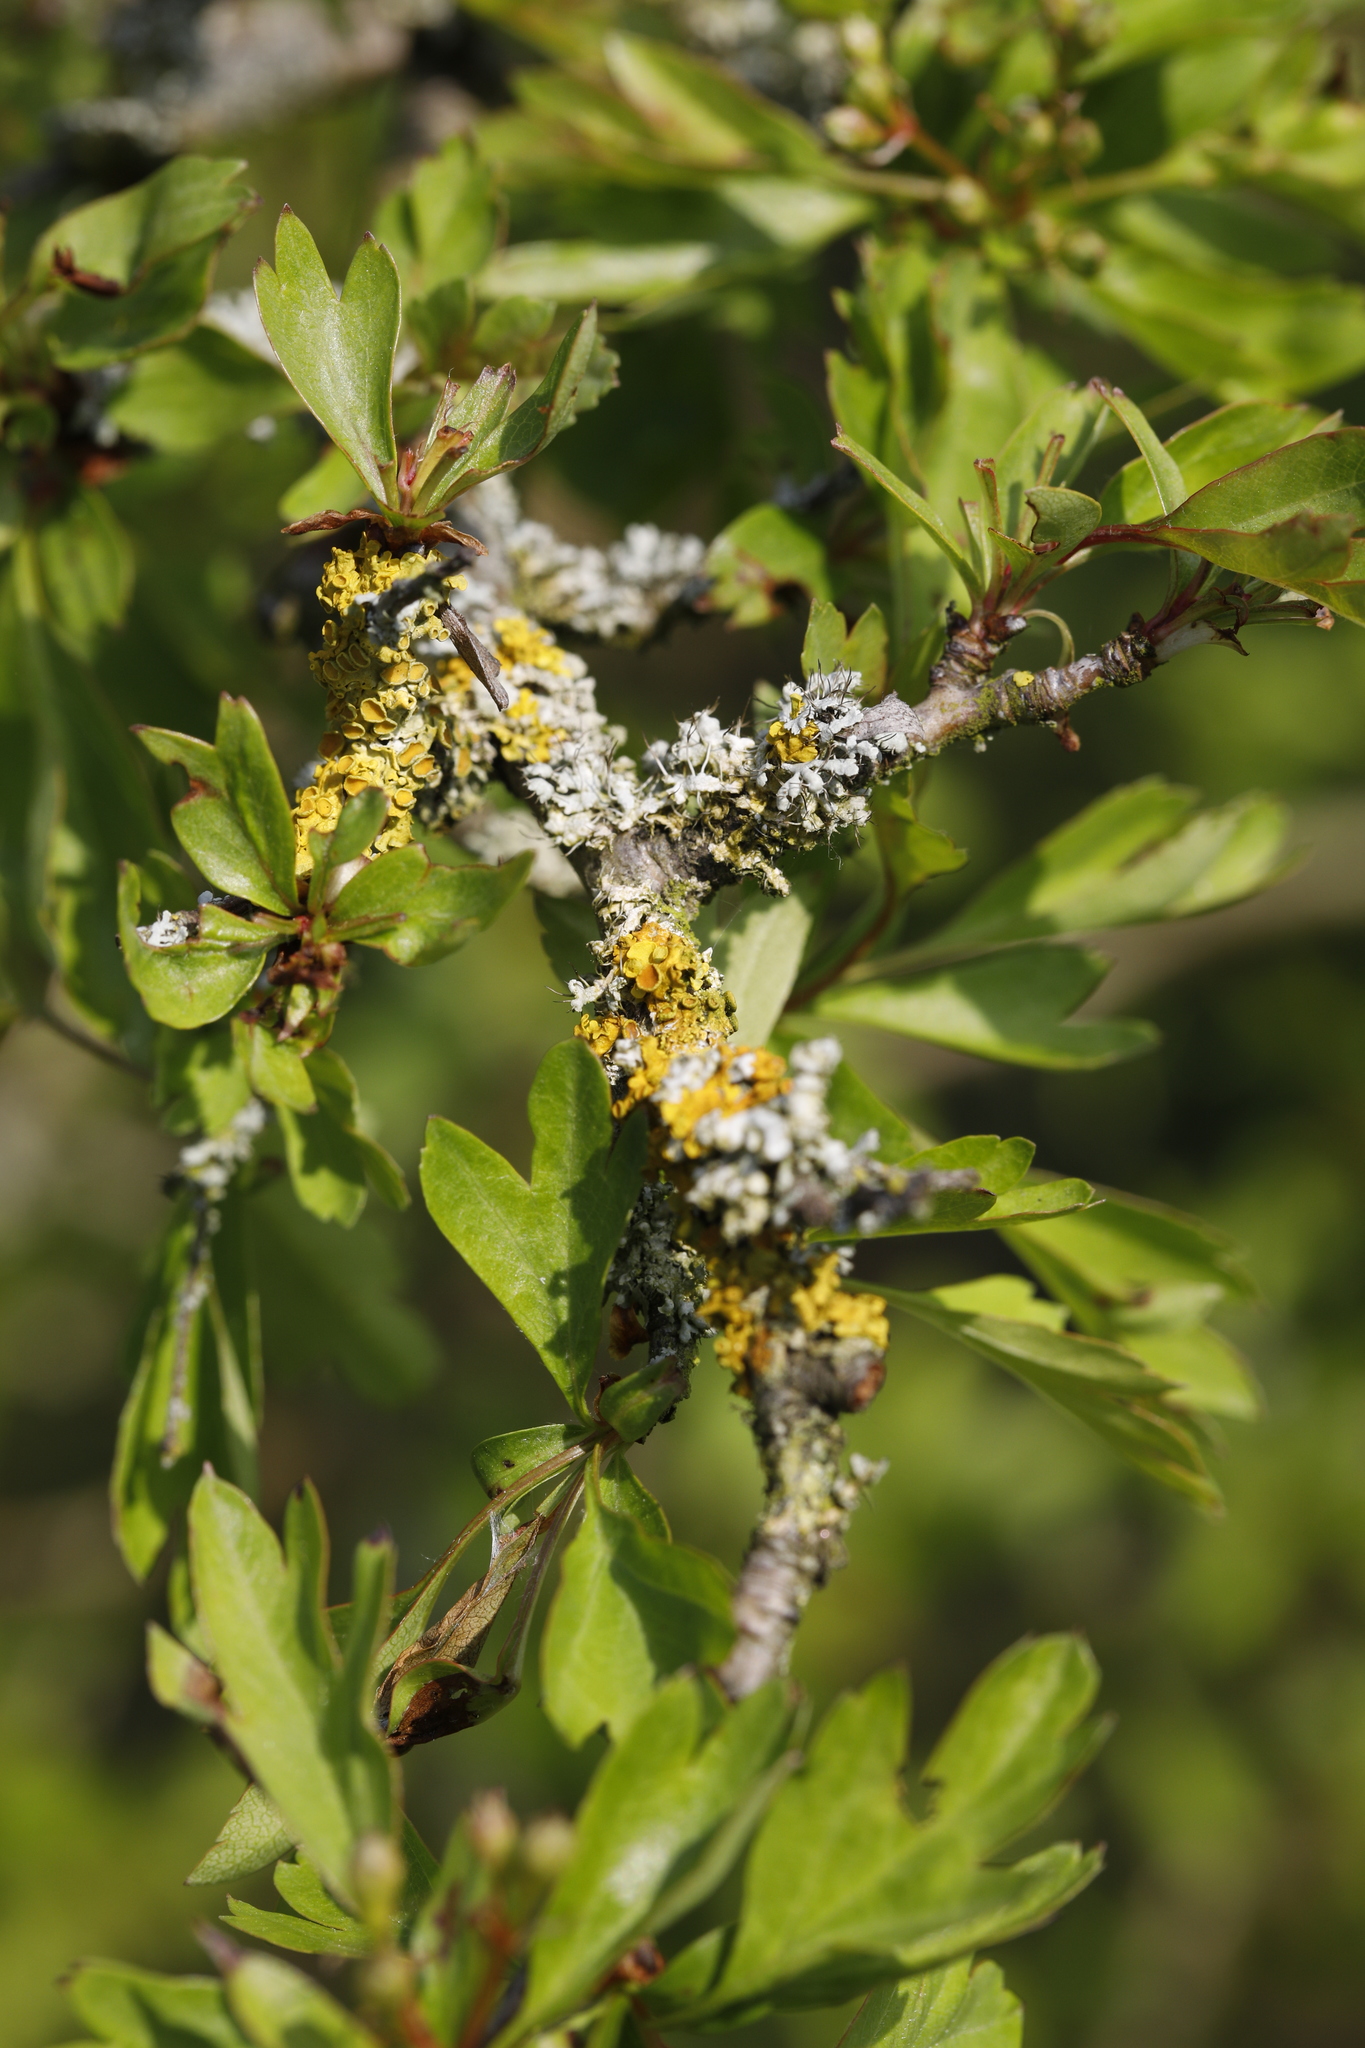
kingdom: Plantae
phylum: Tracheophyta
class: Magnoliopsida
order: Rosales
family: Rosaceae
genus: Crataegus
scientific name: Crataegus monogyna
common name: Hawthorn
